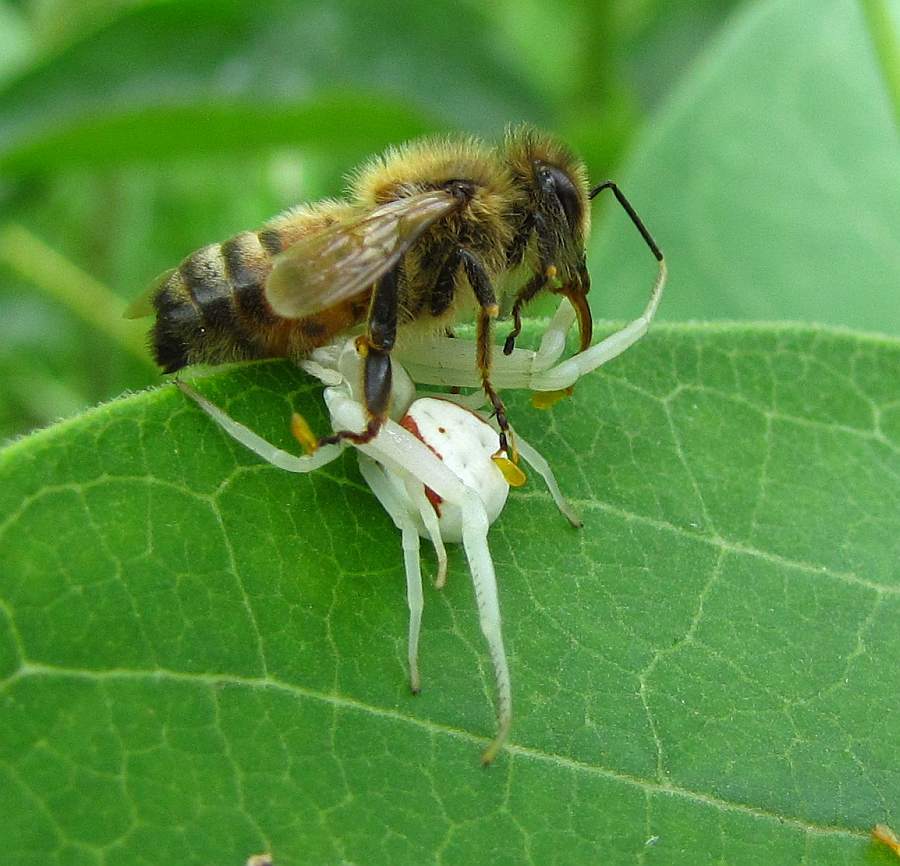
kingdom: Animalia
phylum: Arthropoda
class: Arachnida
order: Araneae
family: Thomisidae
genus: Misumena
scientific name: Misumena vatia
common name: Goldenrod crab spider
